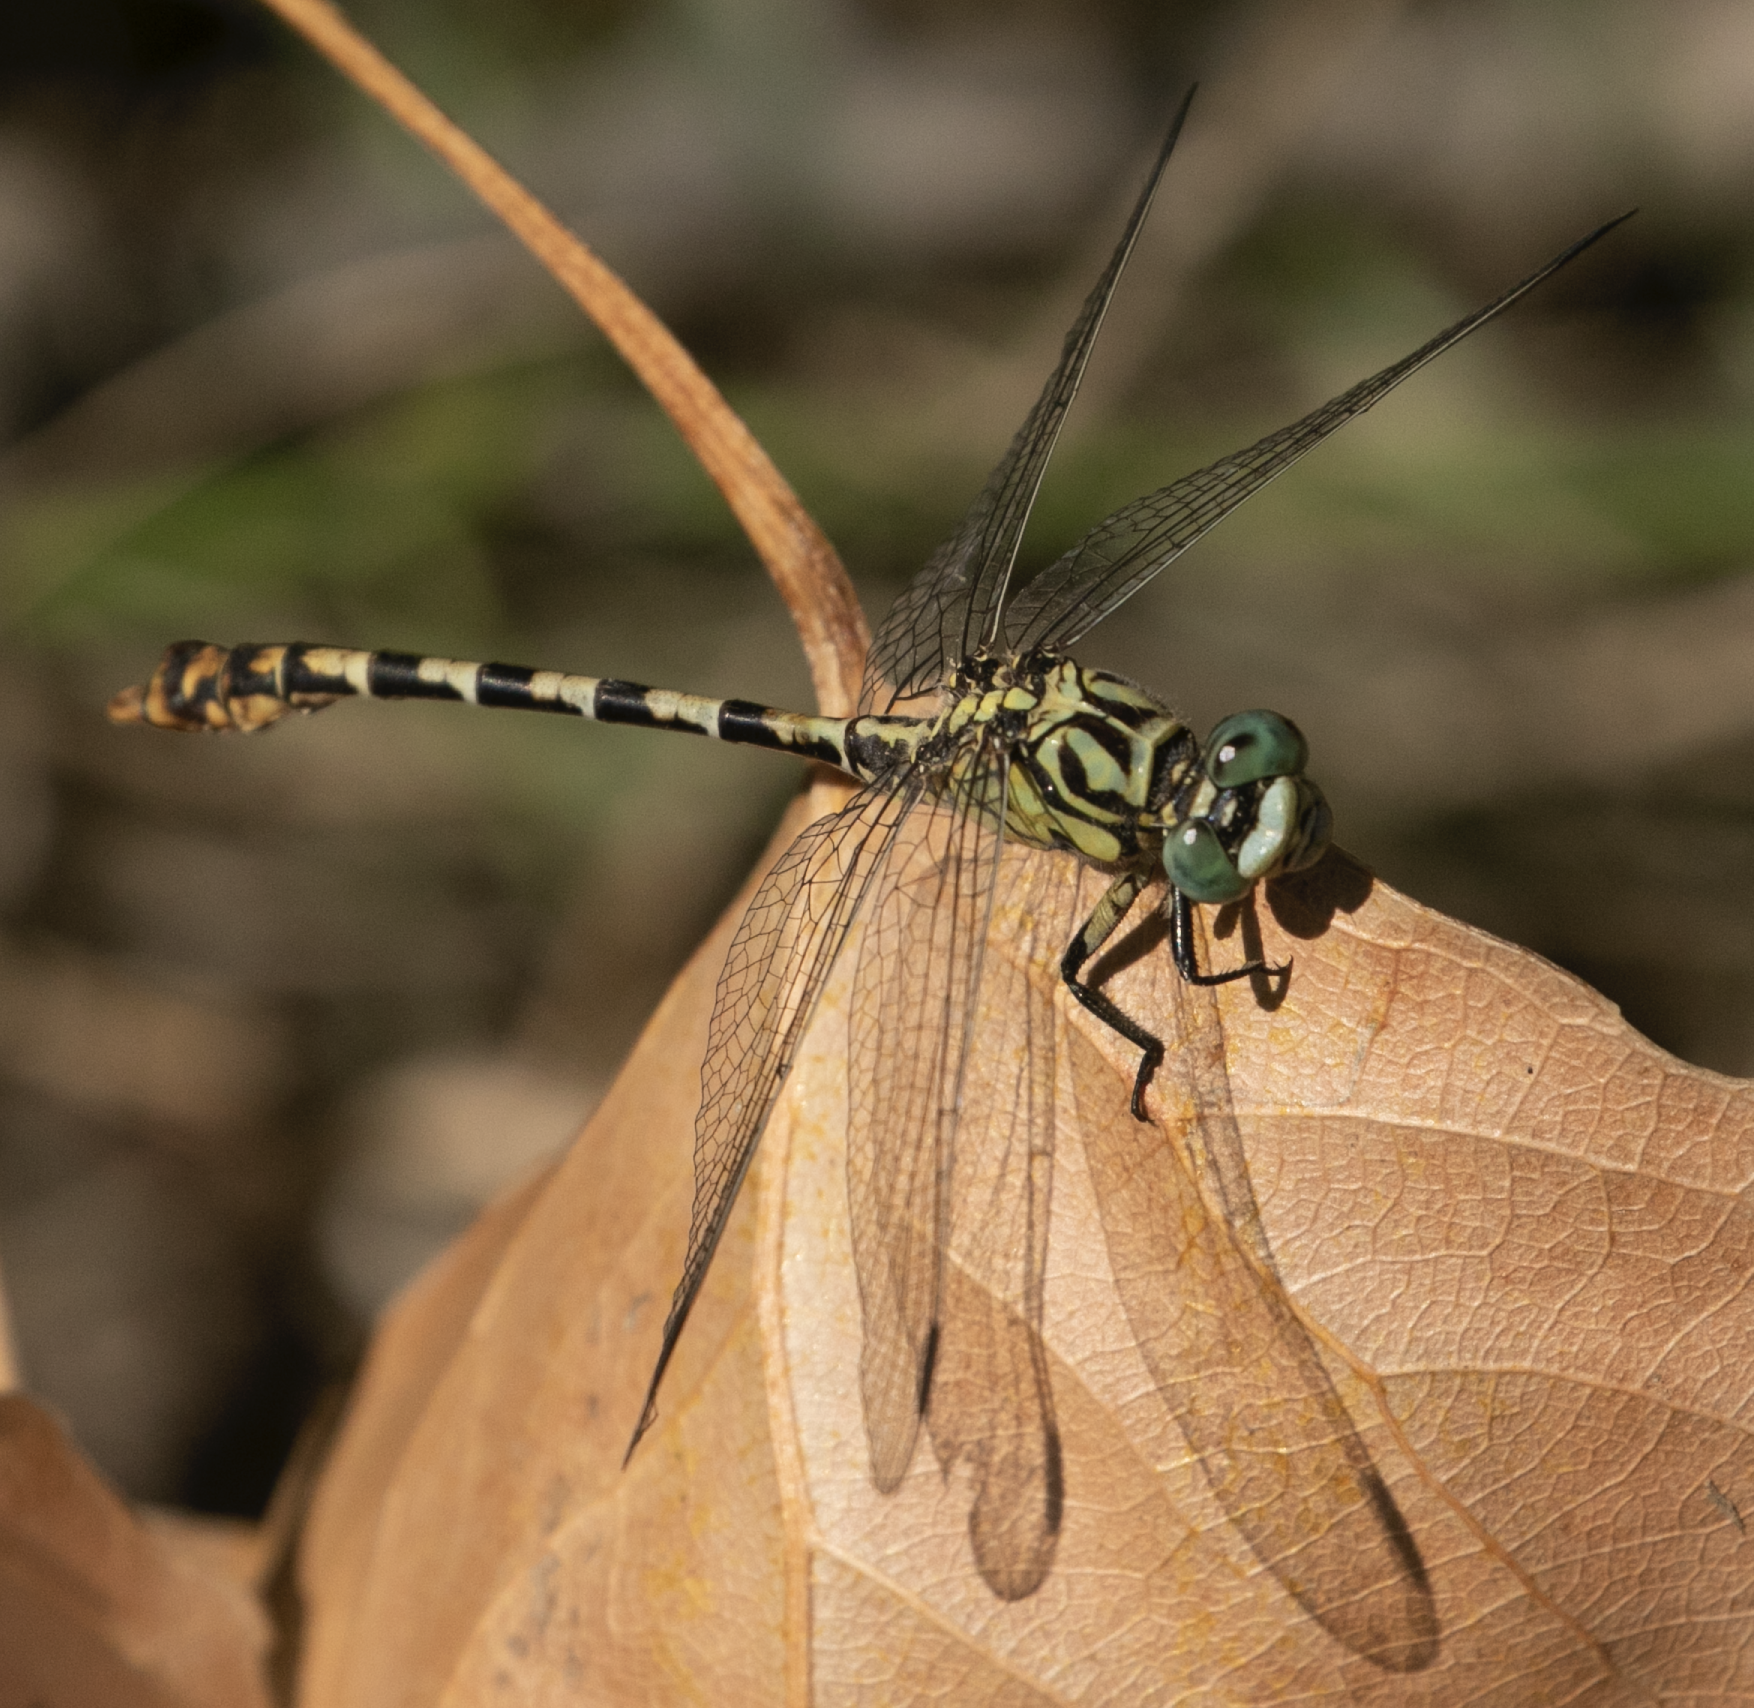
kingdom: Animalia
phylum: Arthropoda
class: Insecta
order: Odonata
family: Gomphidae
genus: Onychogomphus
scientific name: Onychogomphus forcipatus
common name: Small pincertail
